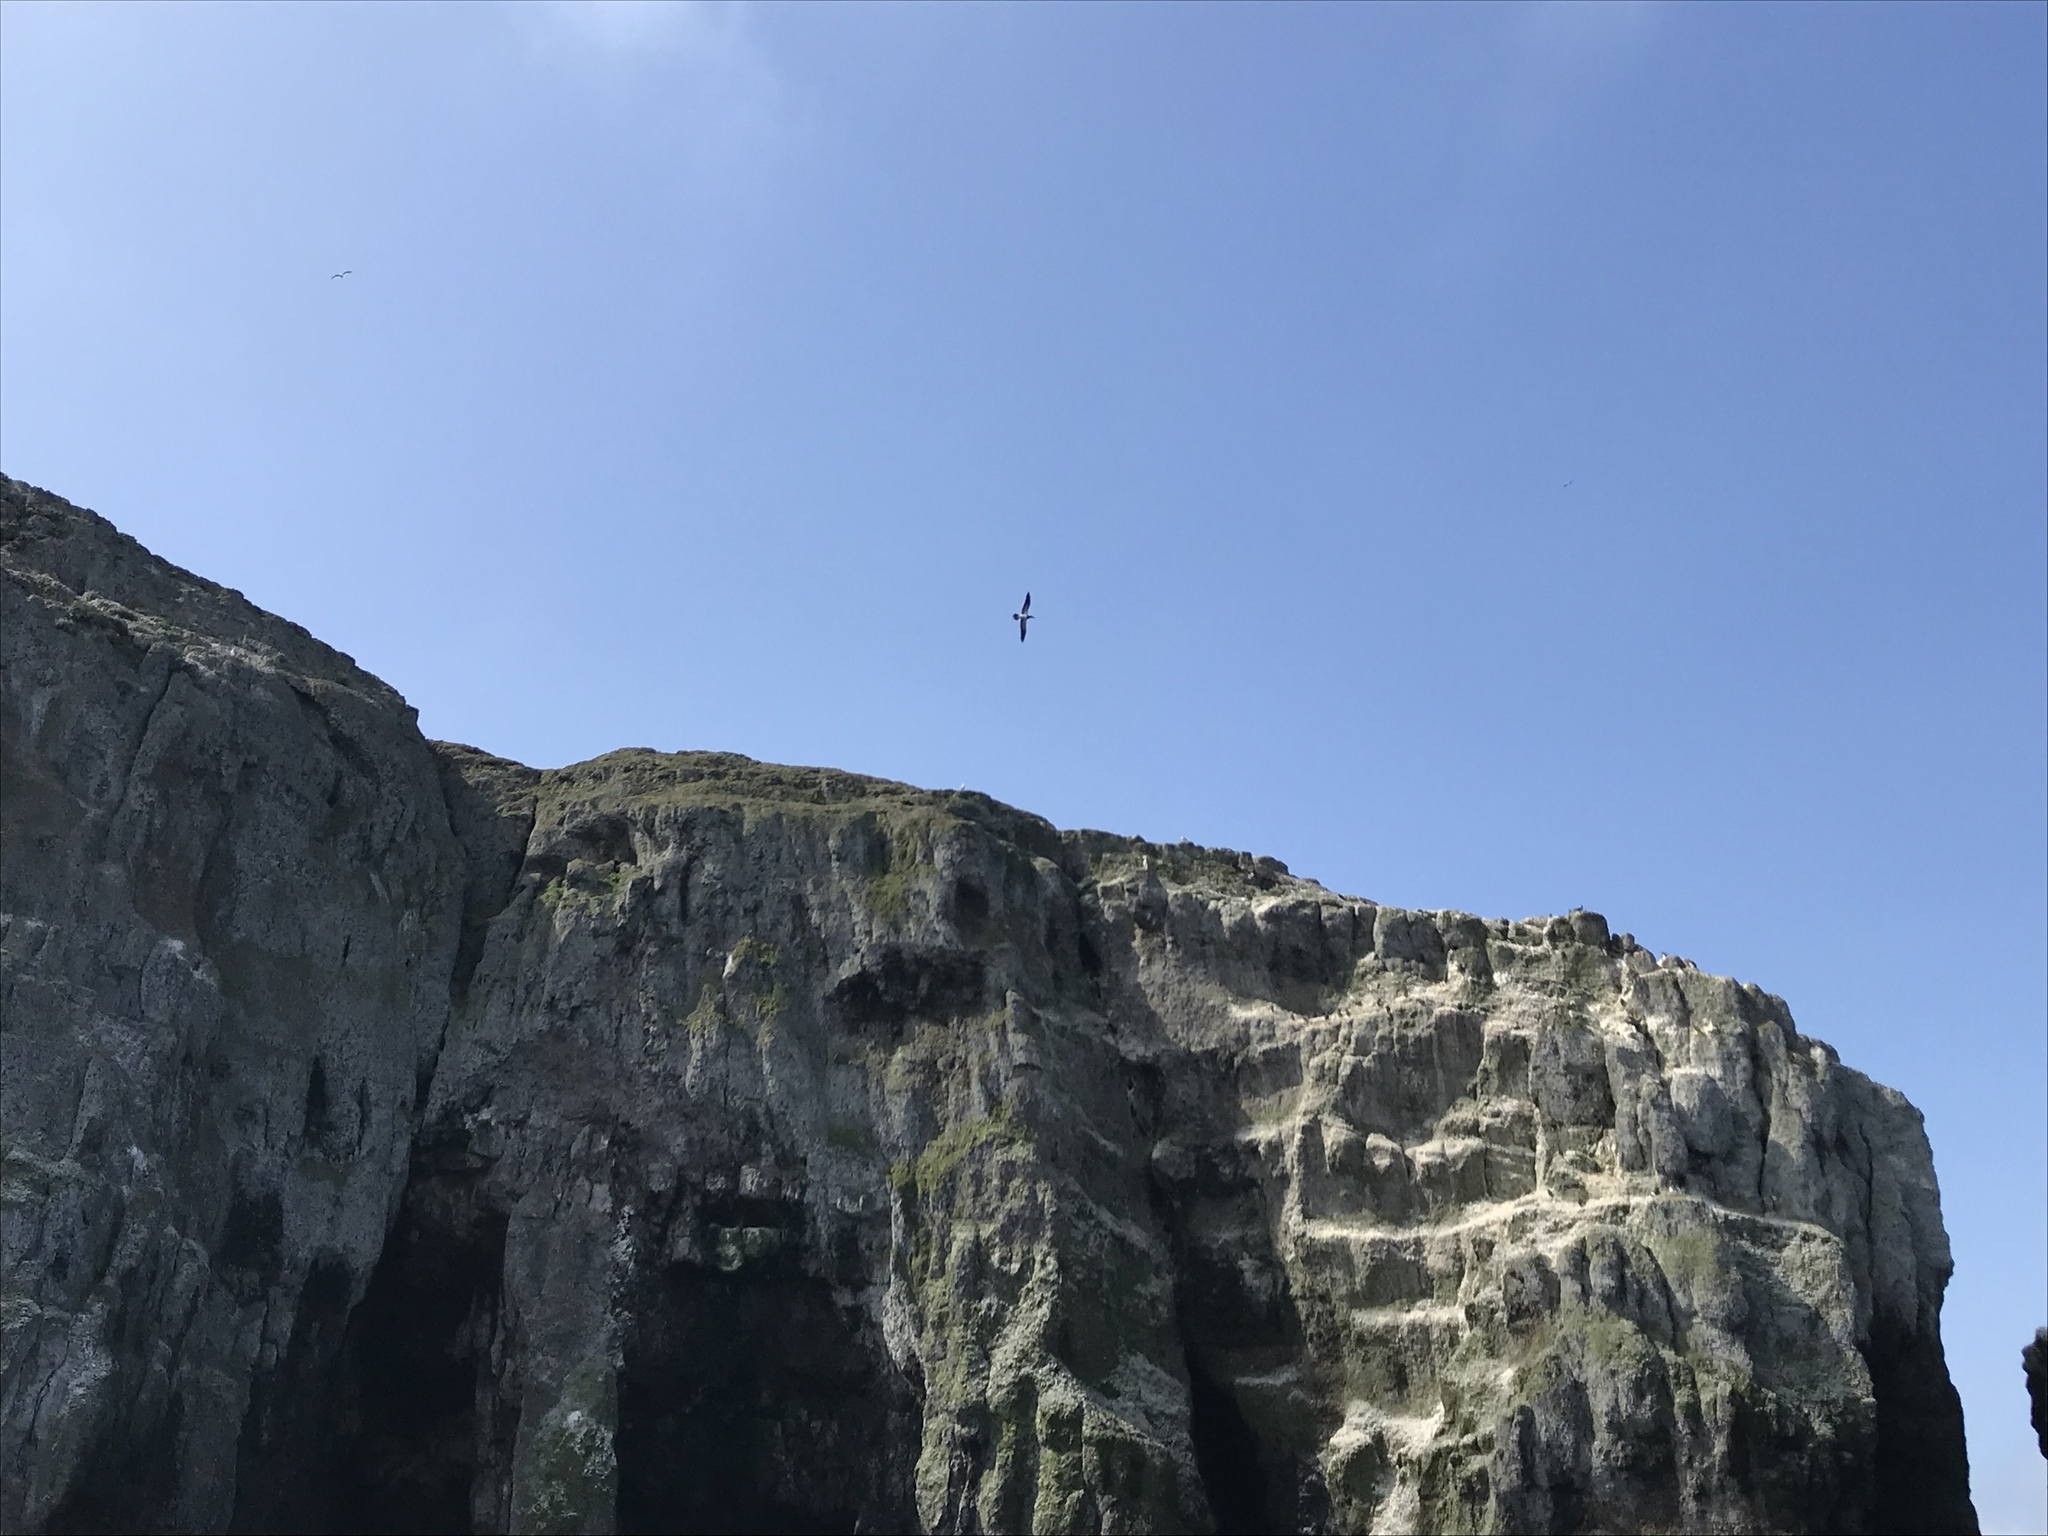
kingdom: Animalia
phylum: Chordata
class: Aves
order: Suliformes
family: Sulidae
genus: Sula
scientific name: Sula leucogaster
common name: Brown booby
